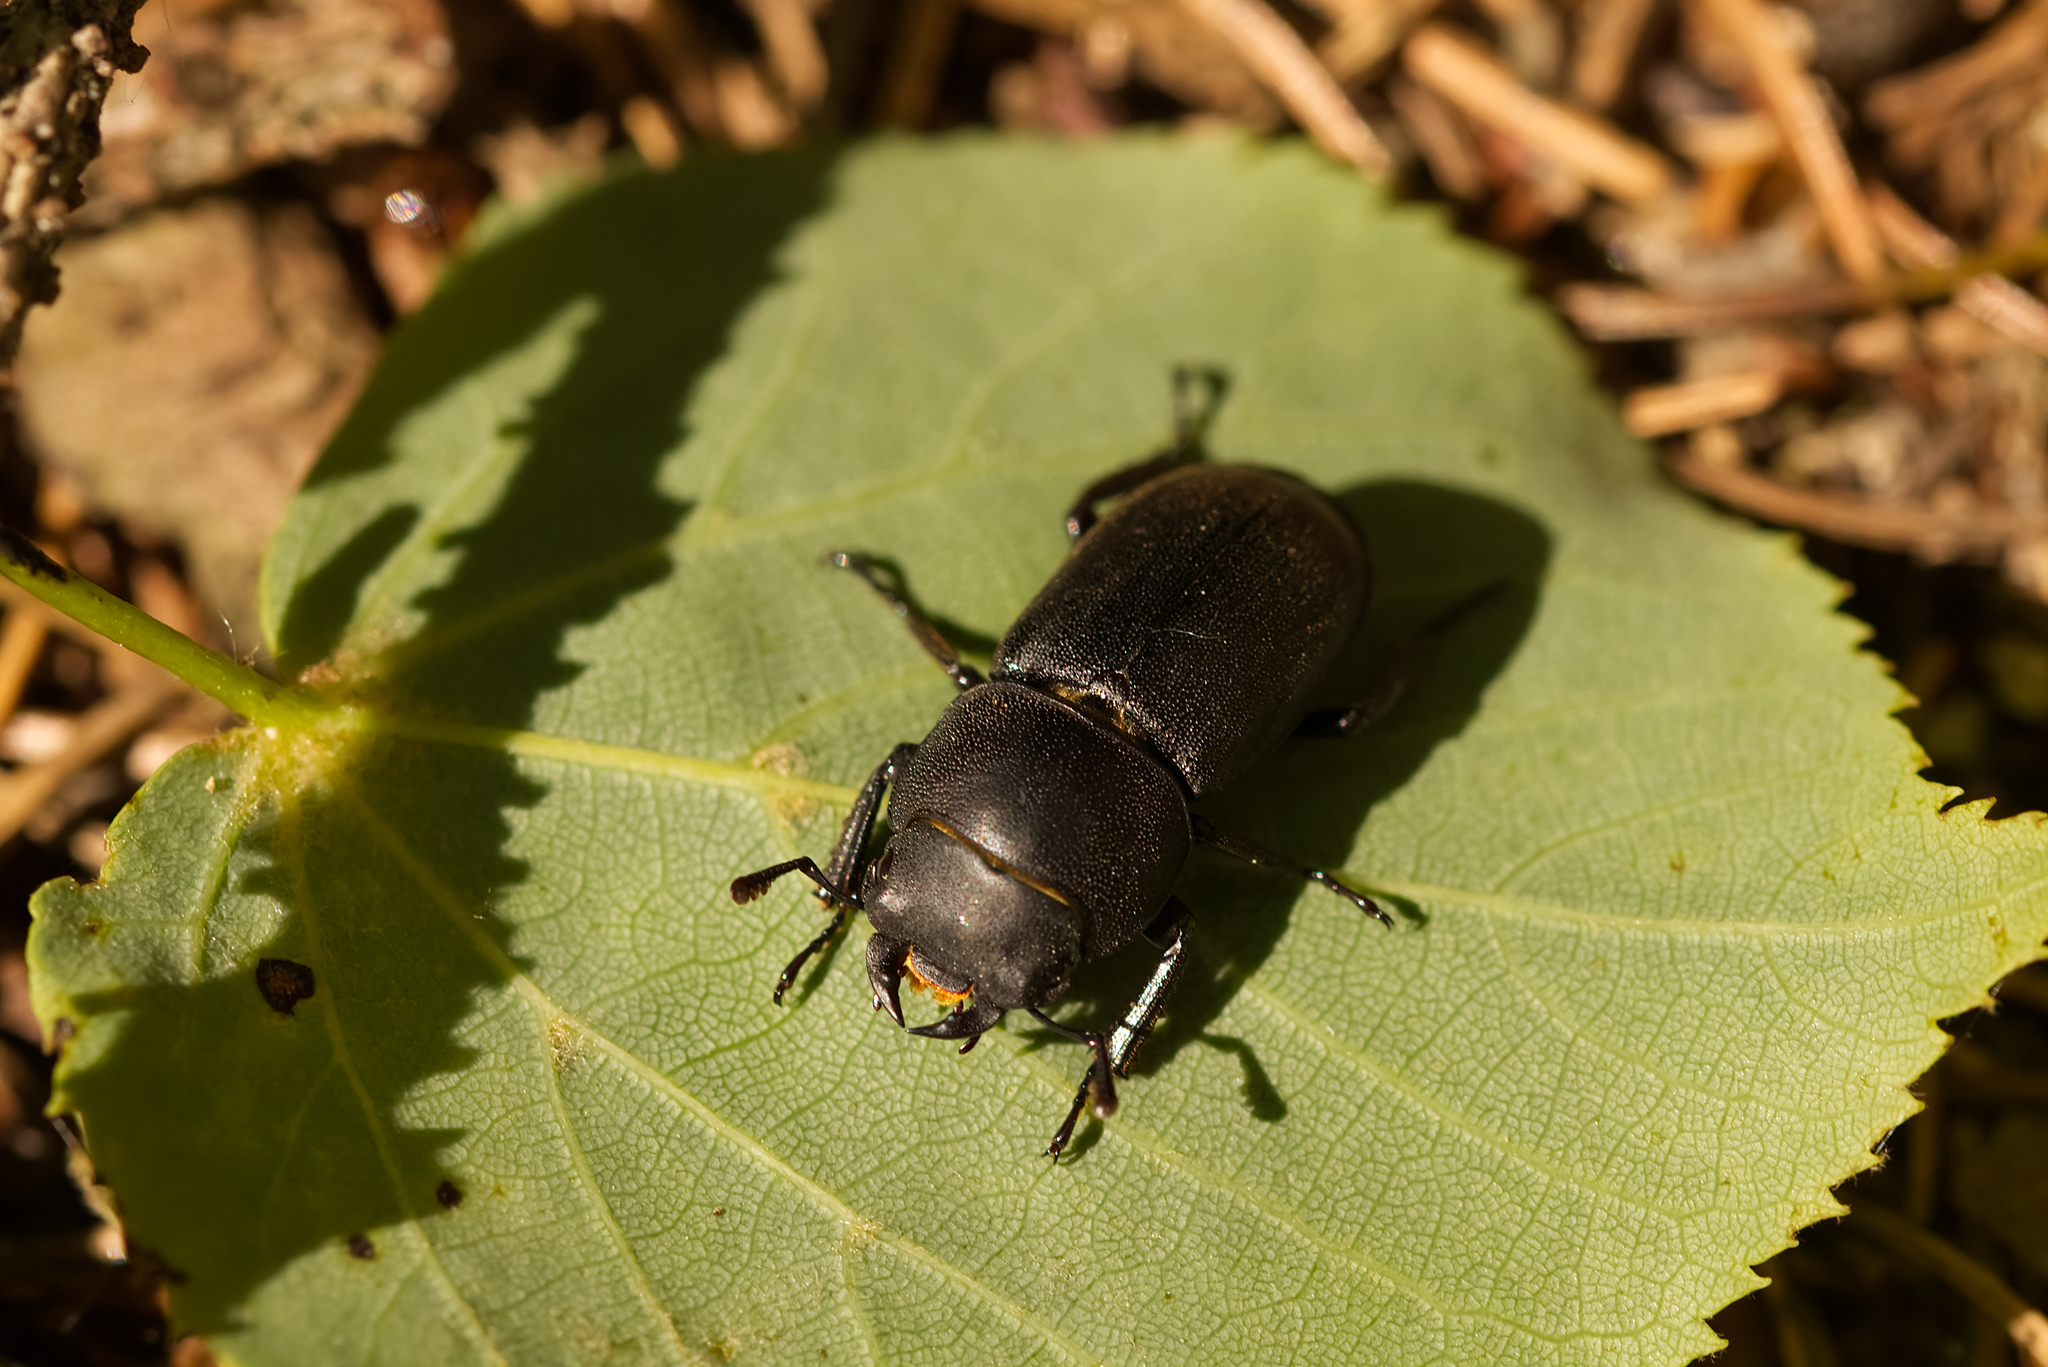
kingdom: Animalia
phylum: Arthropoda
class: Insecta
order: Coleoptera
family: Lucanidae
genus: Dorcus
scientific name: Dorcus parallelipipedus
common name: Lesser stag beetle
